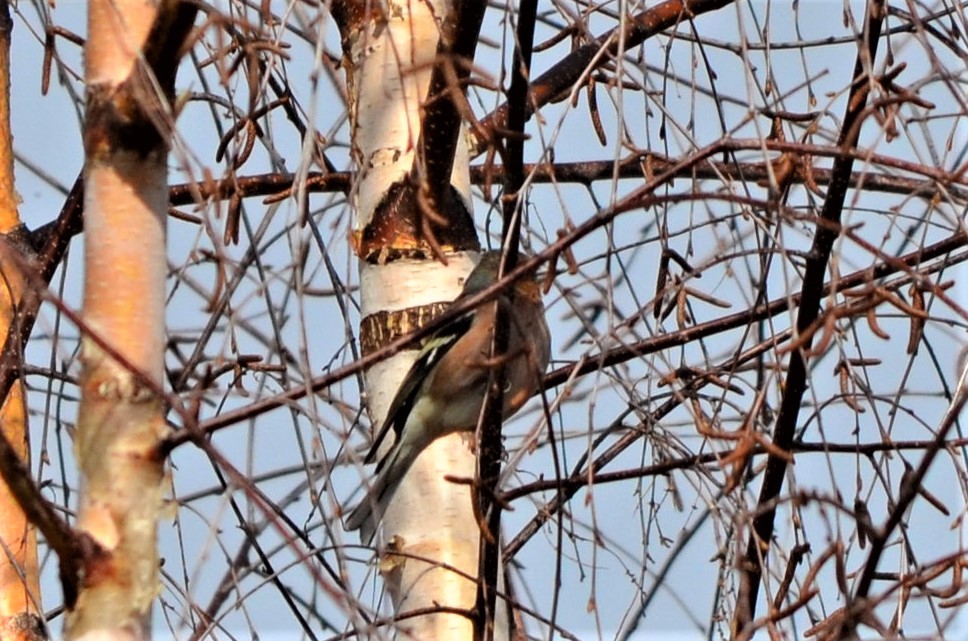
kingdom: Animalia
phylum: Chordata
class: Aves
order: Passeriformes
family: Fringillidae
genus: Fringilla
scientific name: Fringilla coelebs
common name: Common chaffinch
